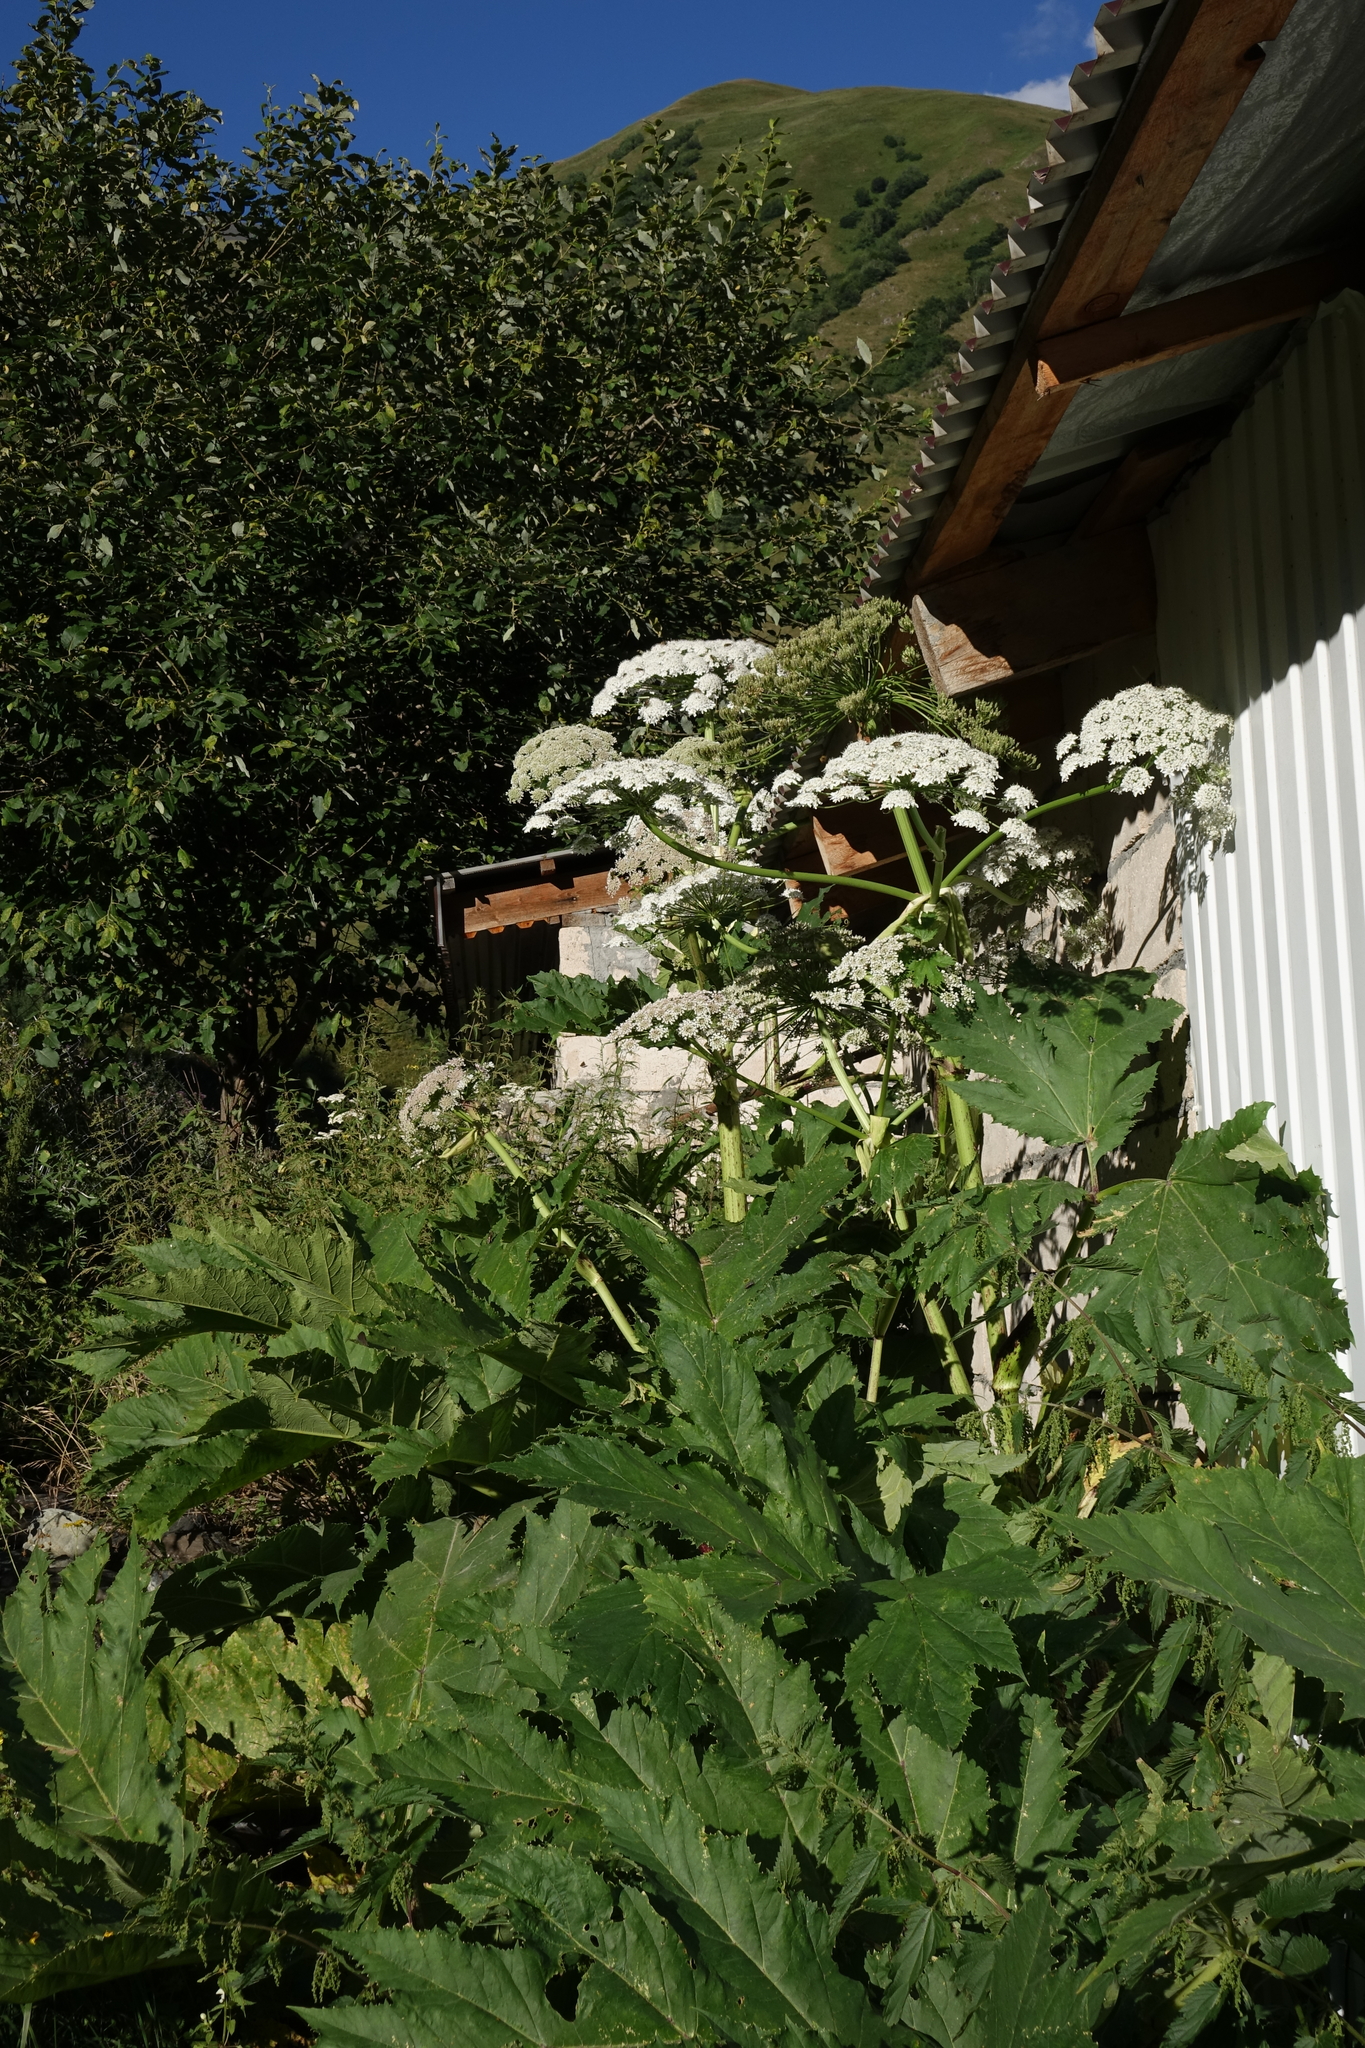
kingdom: Plantae
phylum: Tracheophyta
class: Magnoliopsida
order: Apiales
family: Apiaceae
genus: Heracleum
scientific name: Heracleum sosnowskyi
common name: Sosnowsky's hogweed
